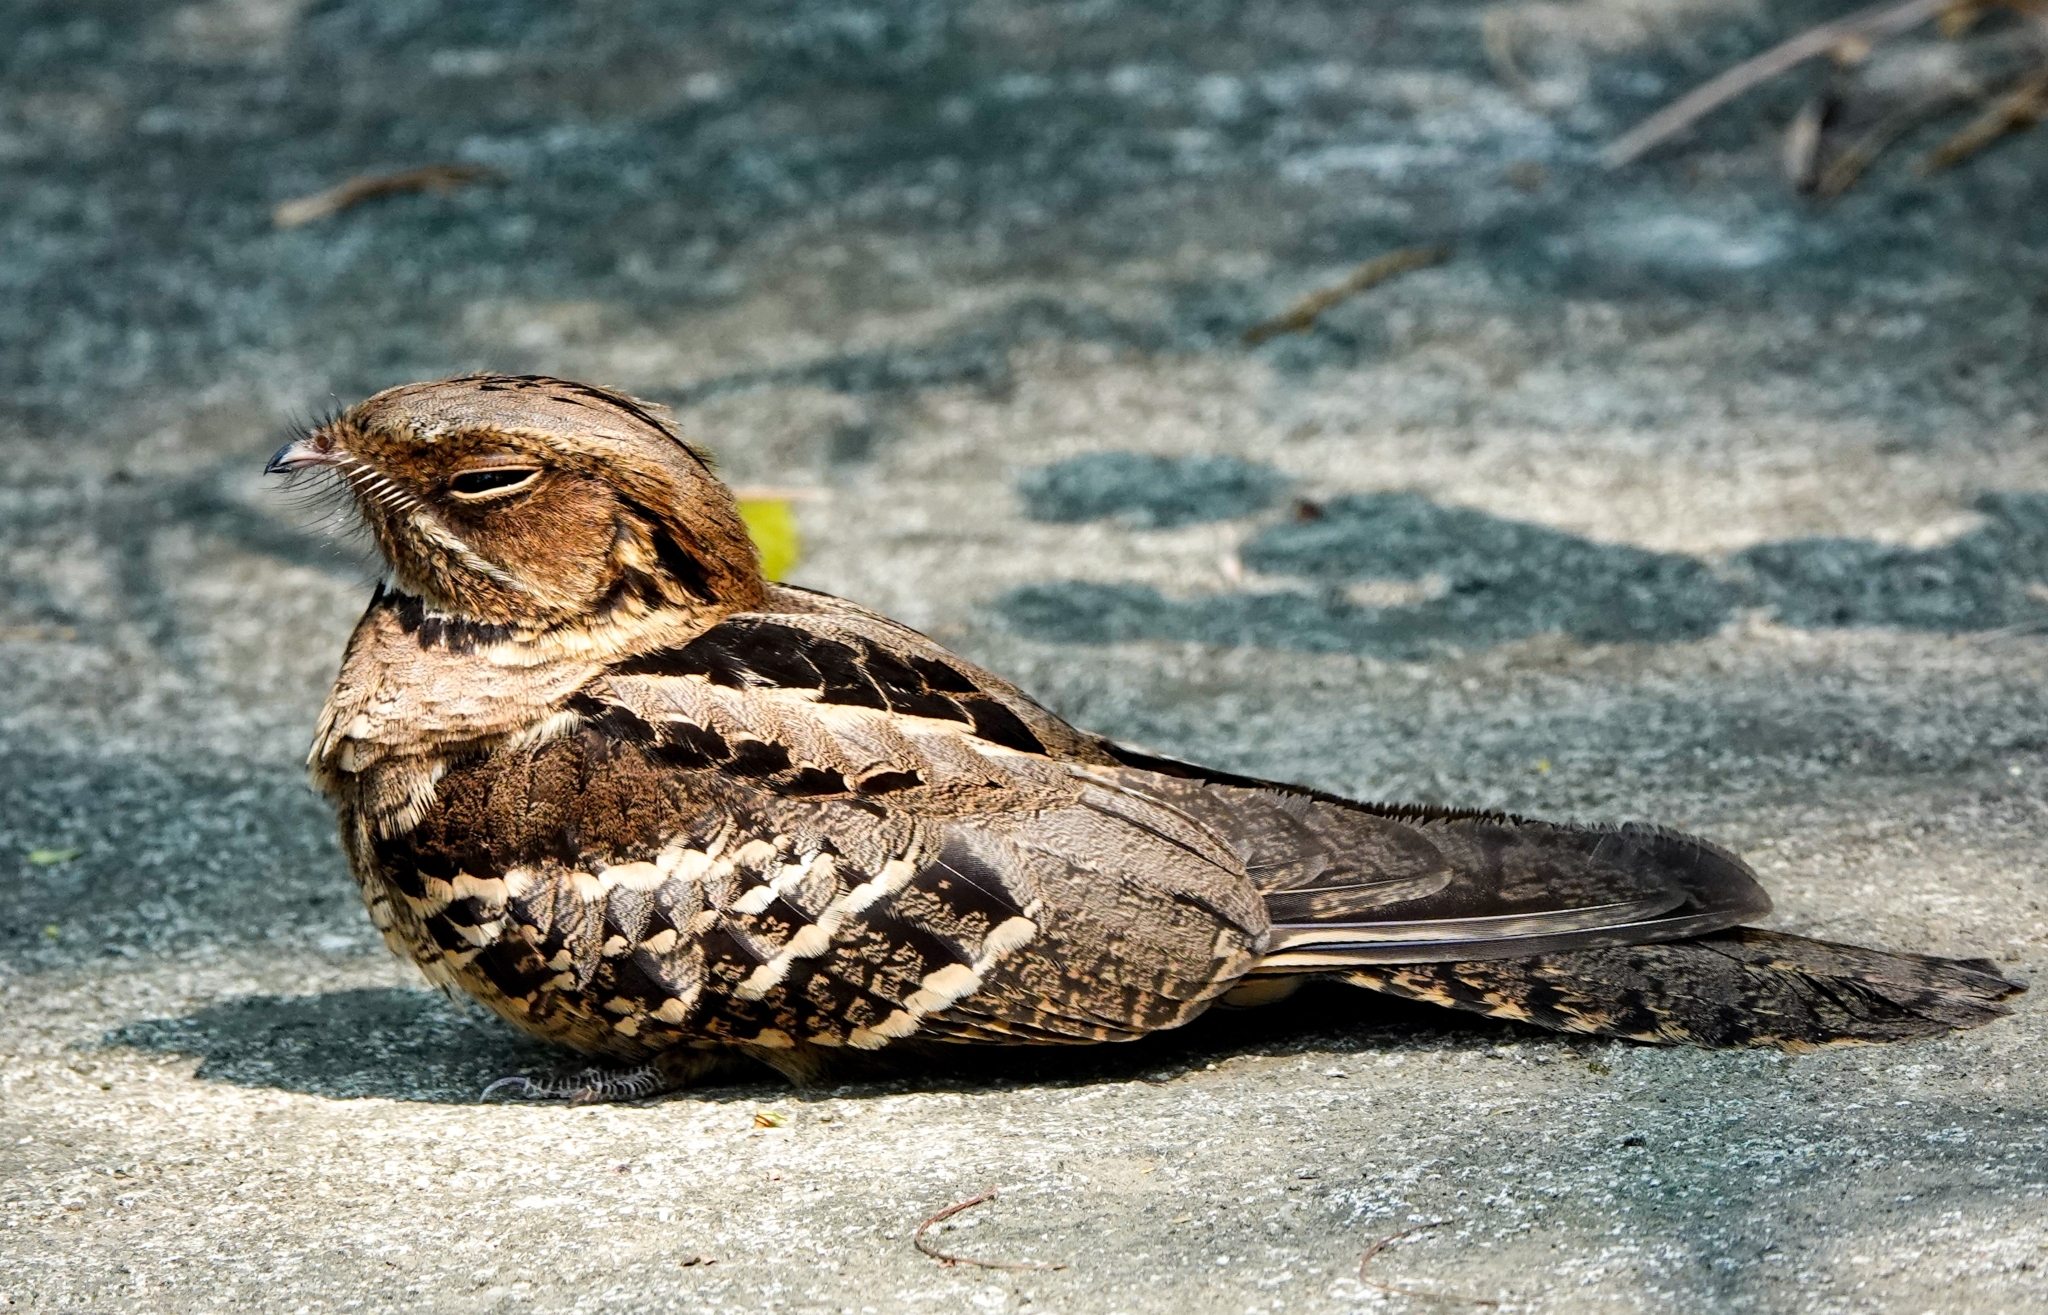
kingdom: Animalia
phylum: Chordata
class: Aves
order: Caprimulgiformes
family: Caprimulgidae
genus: Caprimulgus
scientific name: Caprimulgus macrurus
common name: Large-tailed nightjar
